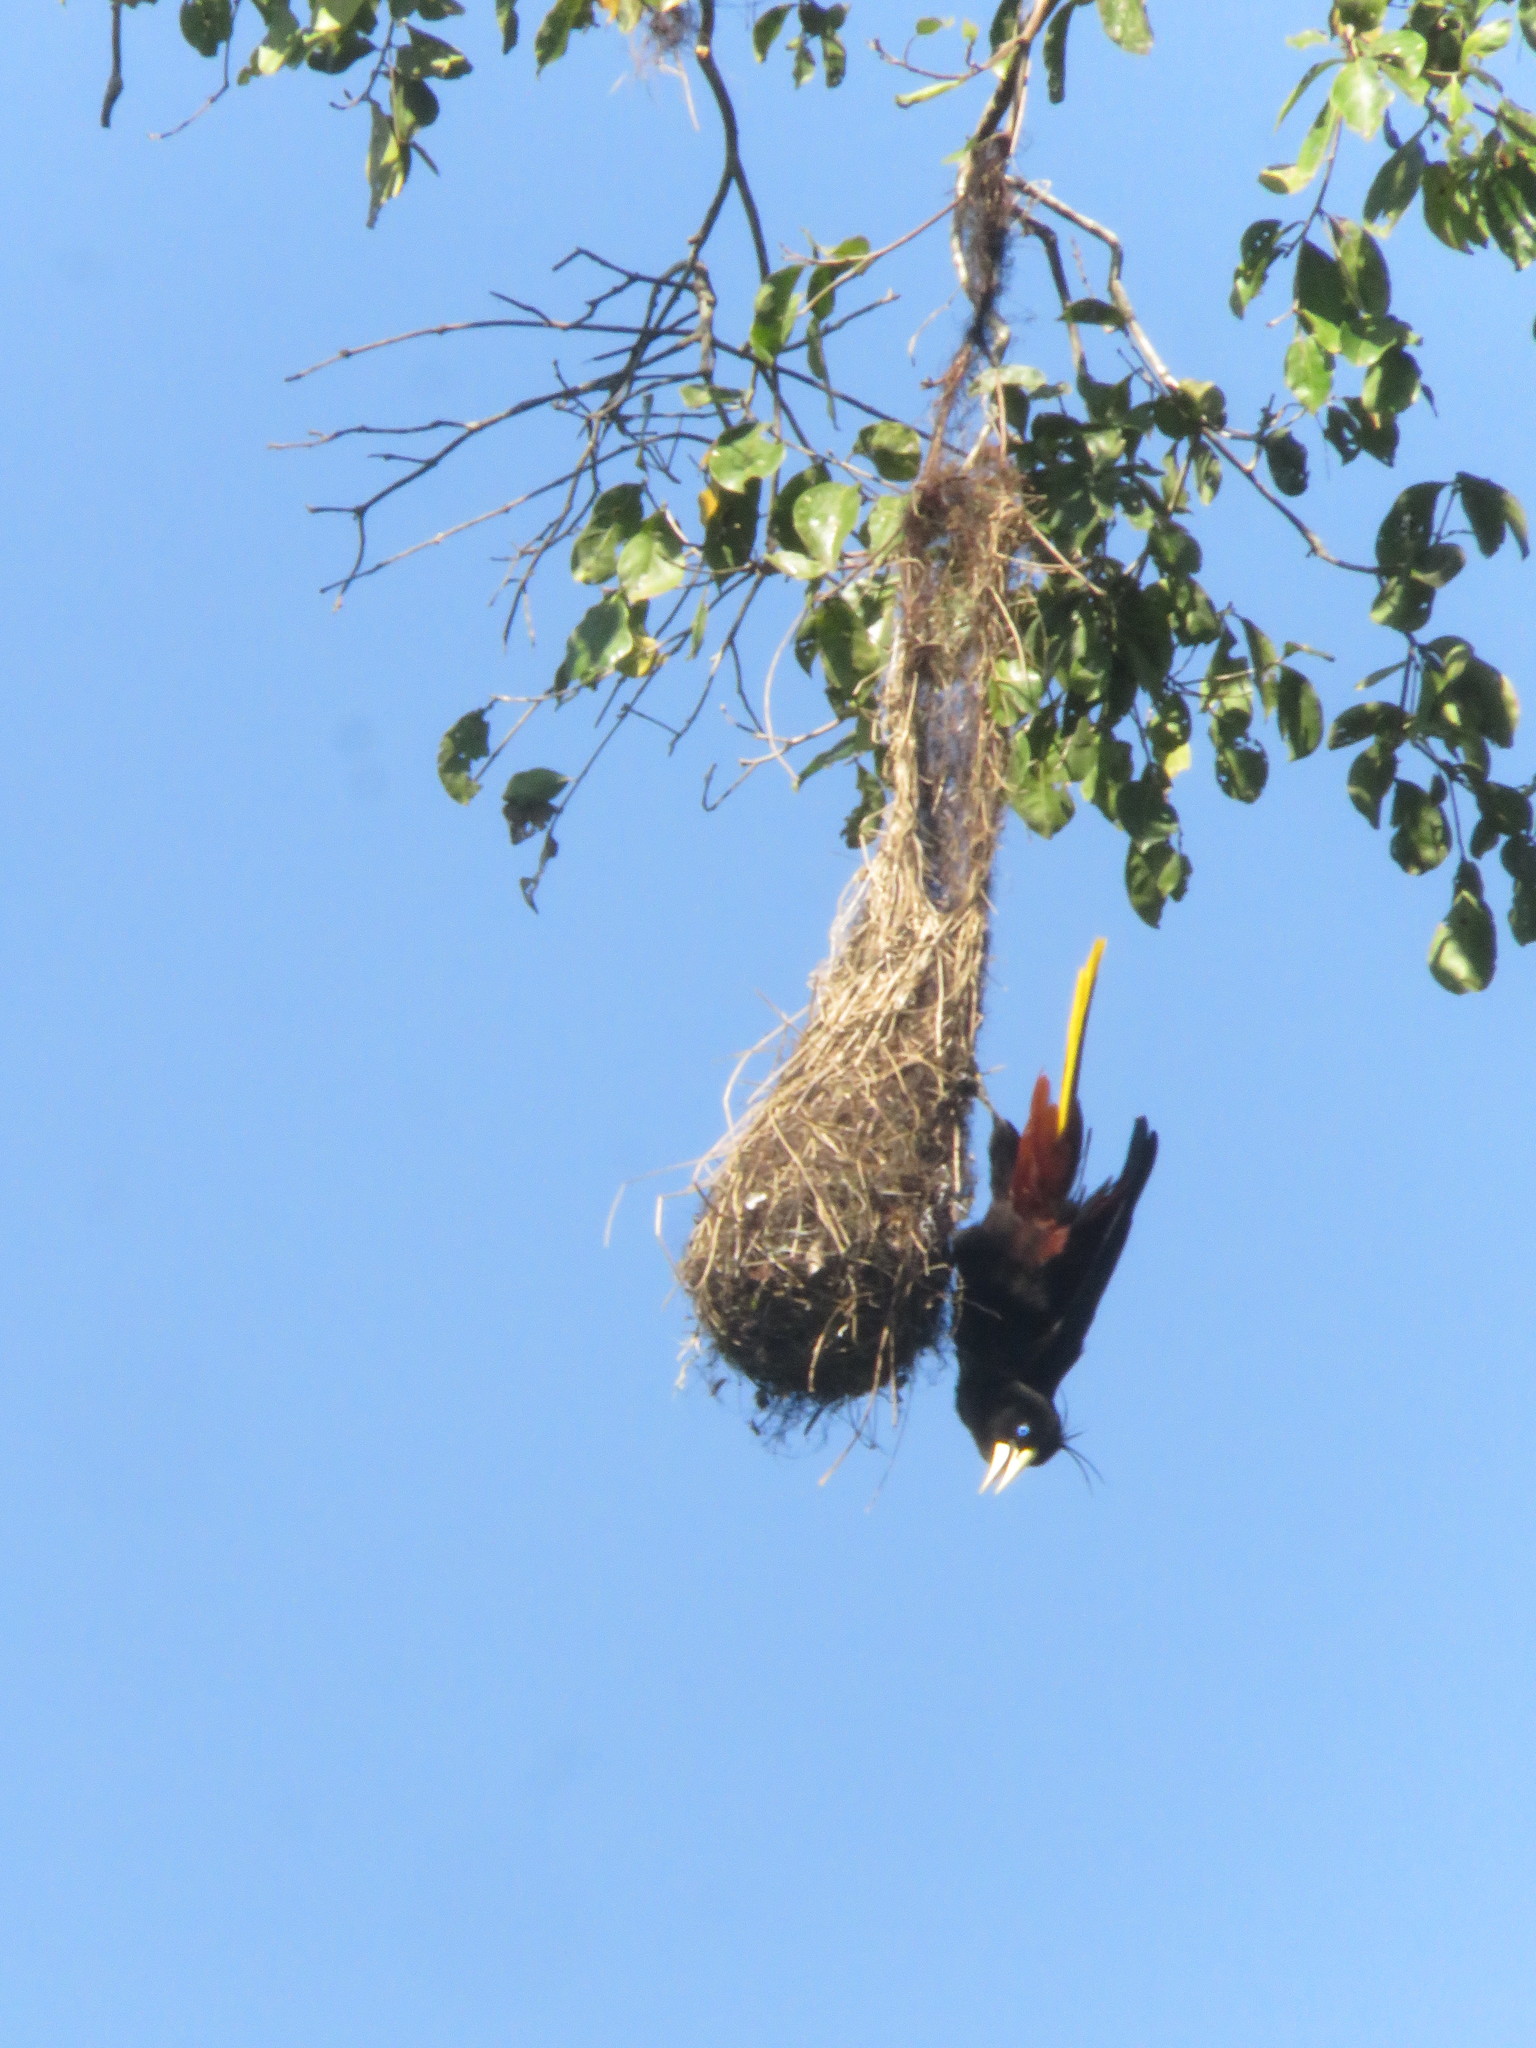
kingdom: Animalia
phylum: Chordata
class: Aves
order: Passeriformes
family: Icteridae
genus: Psarocolius
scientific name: Psarocolius decumanus
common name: Crested oropendola
